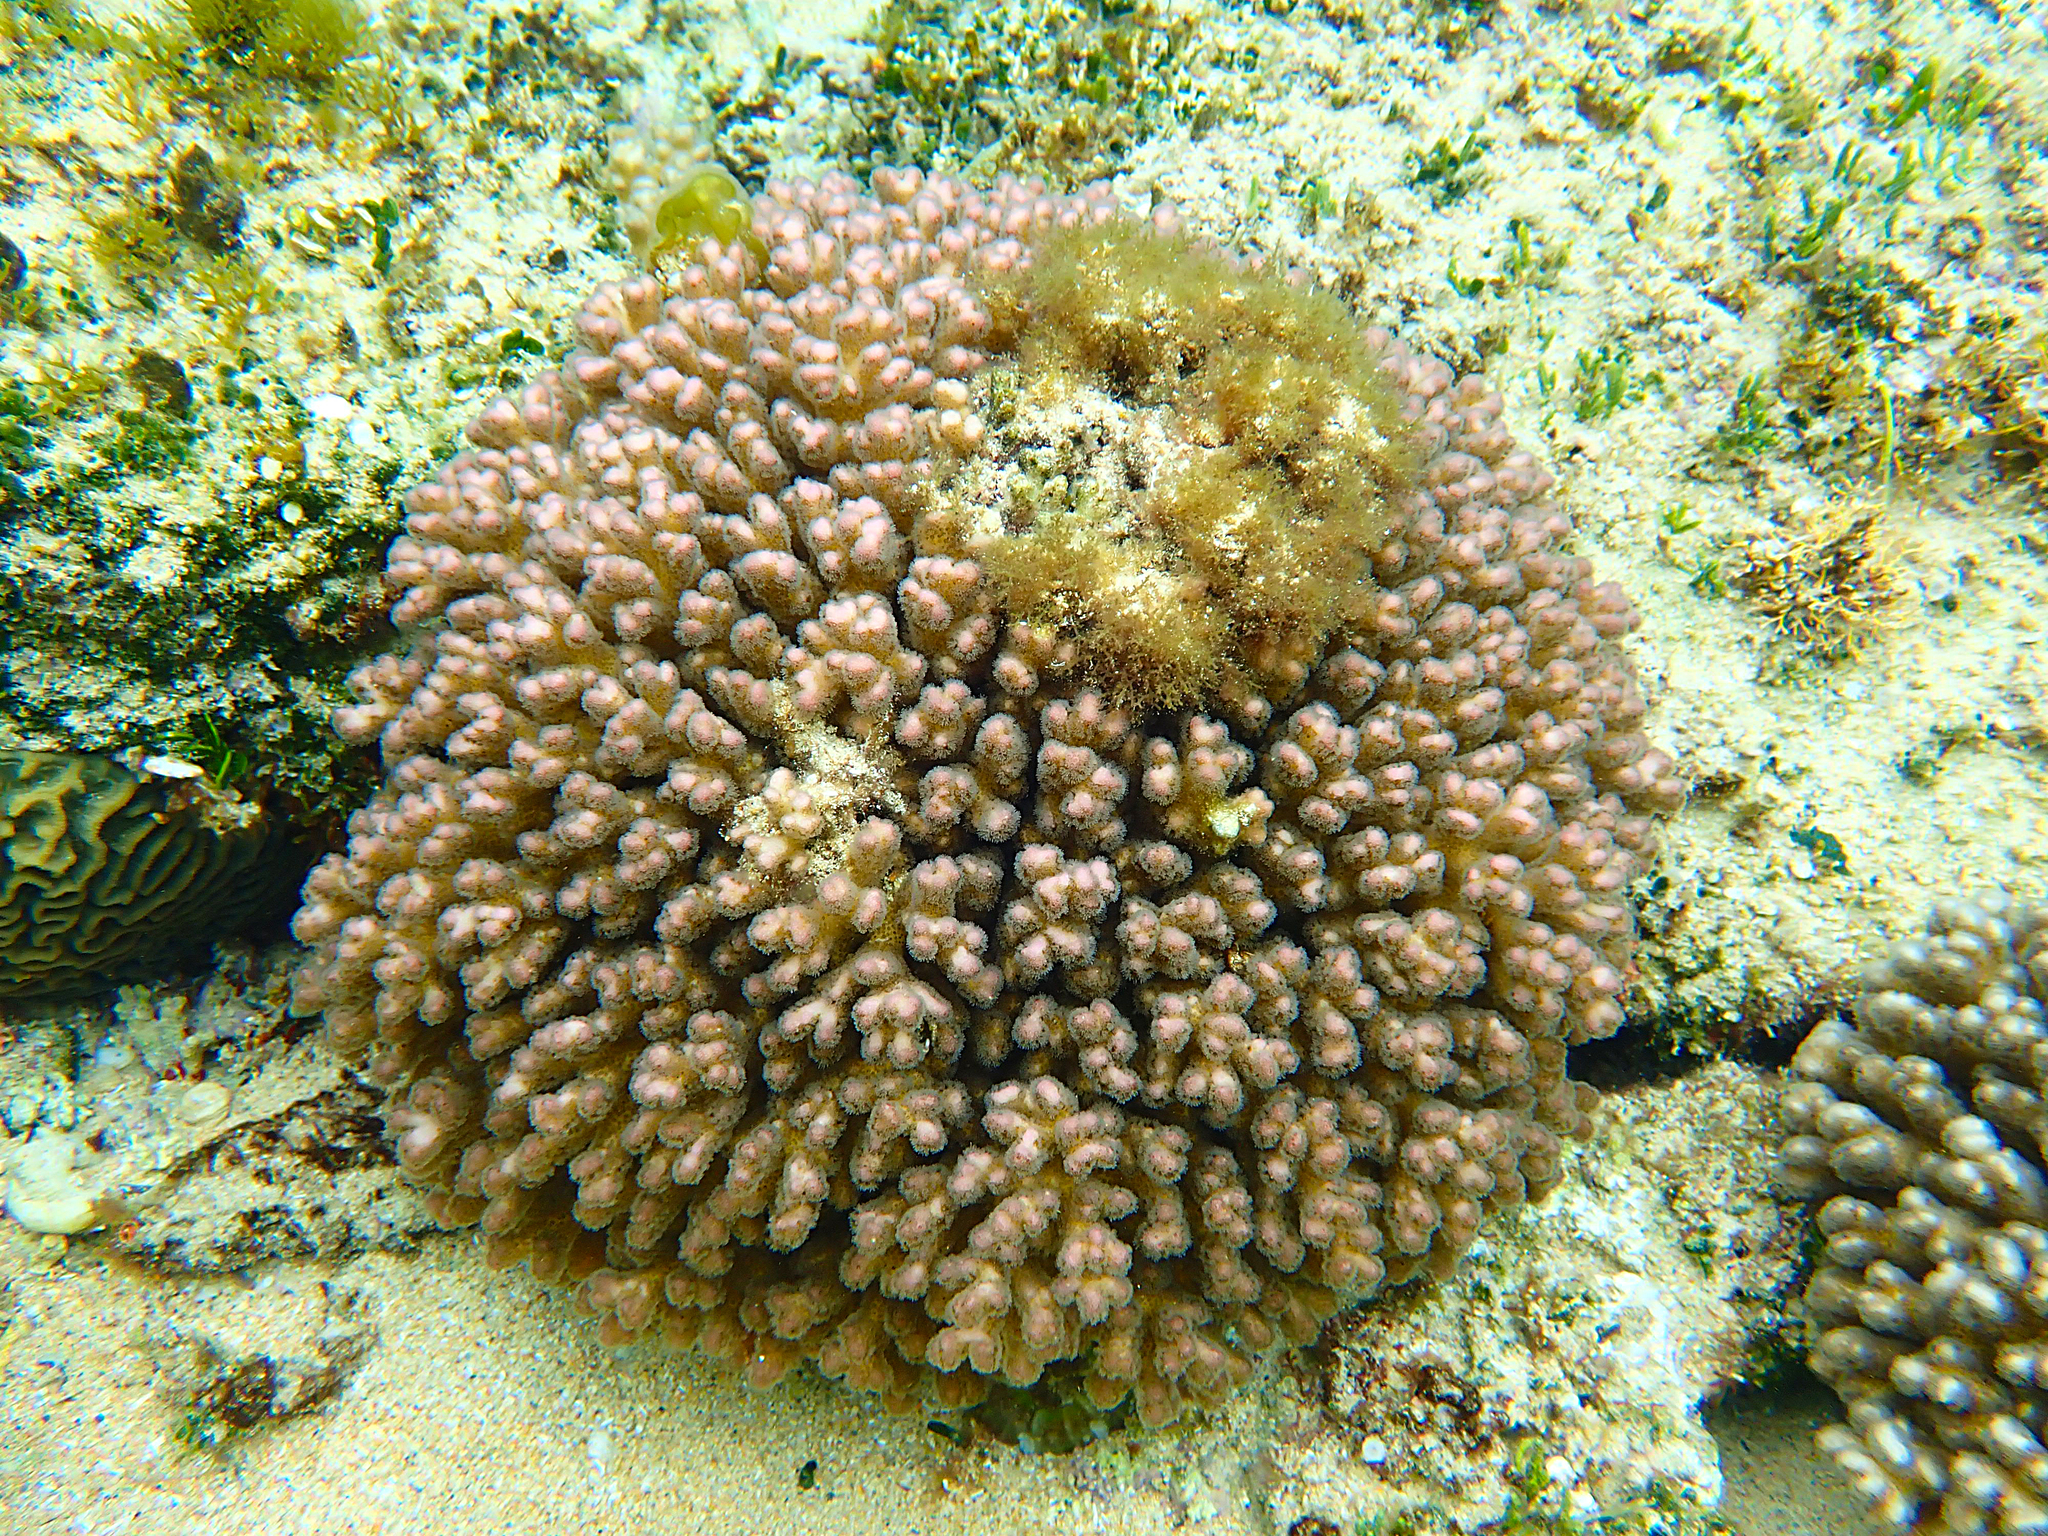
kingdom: Animalia
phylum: Cnidaria
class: Anthozoa
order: Scleractinia
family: Pocilloporidae
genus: Pocillopora
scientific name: Pocillopora damicornis
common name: Cauliflower coral
